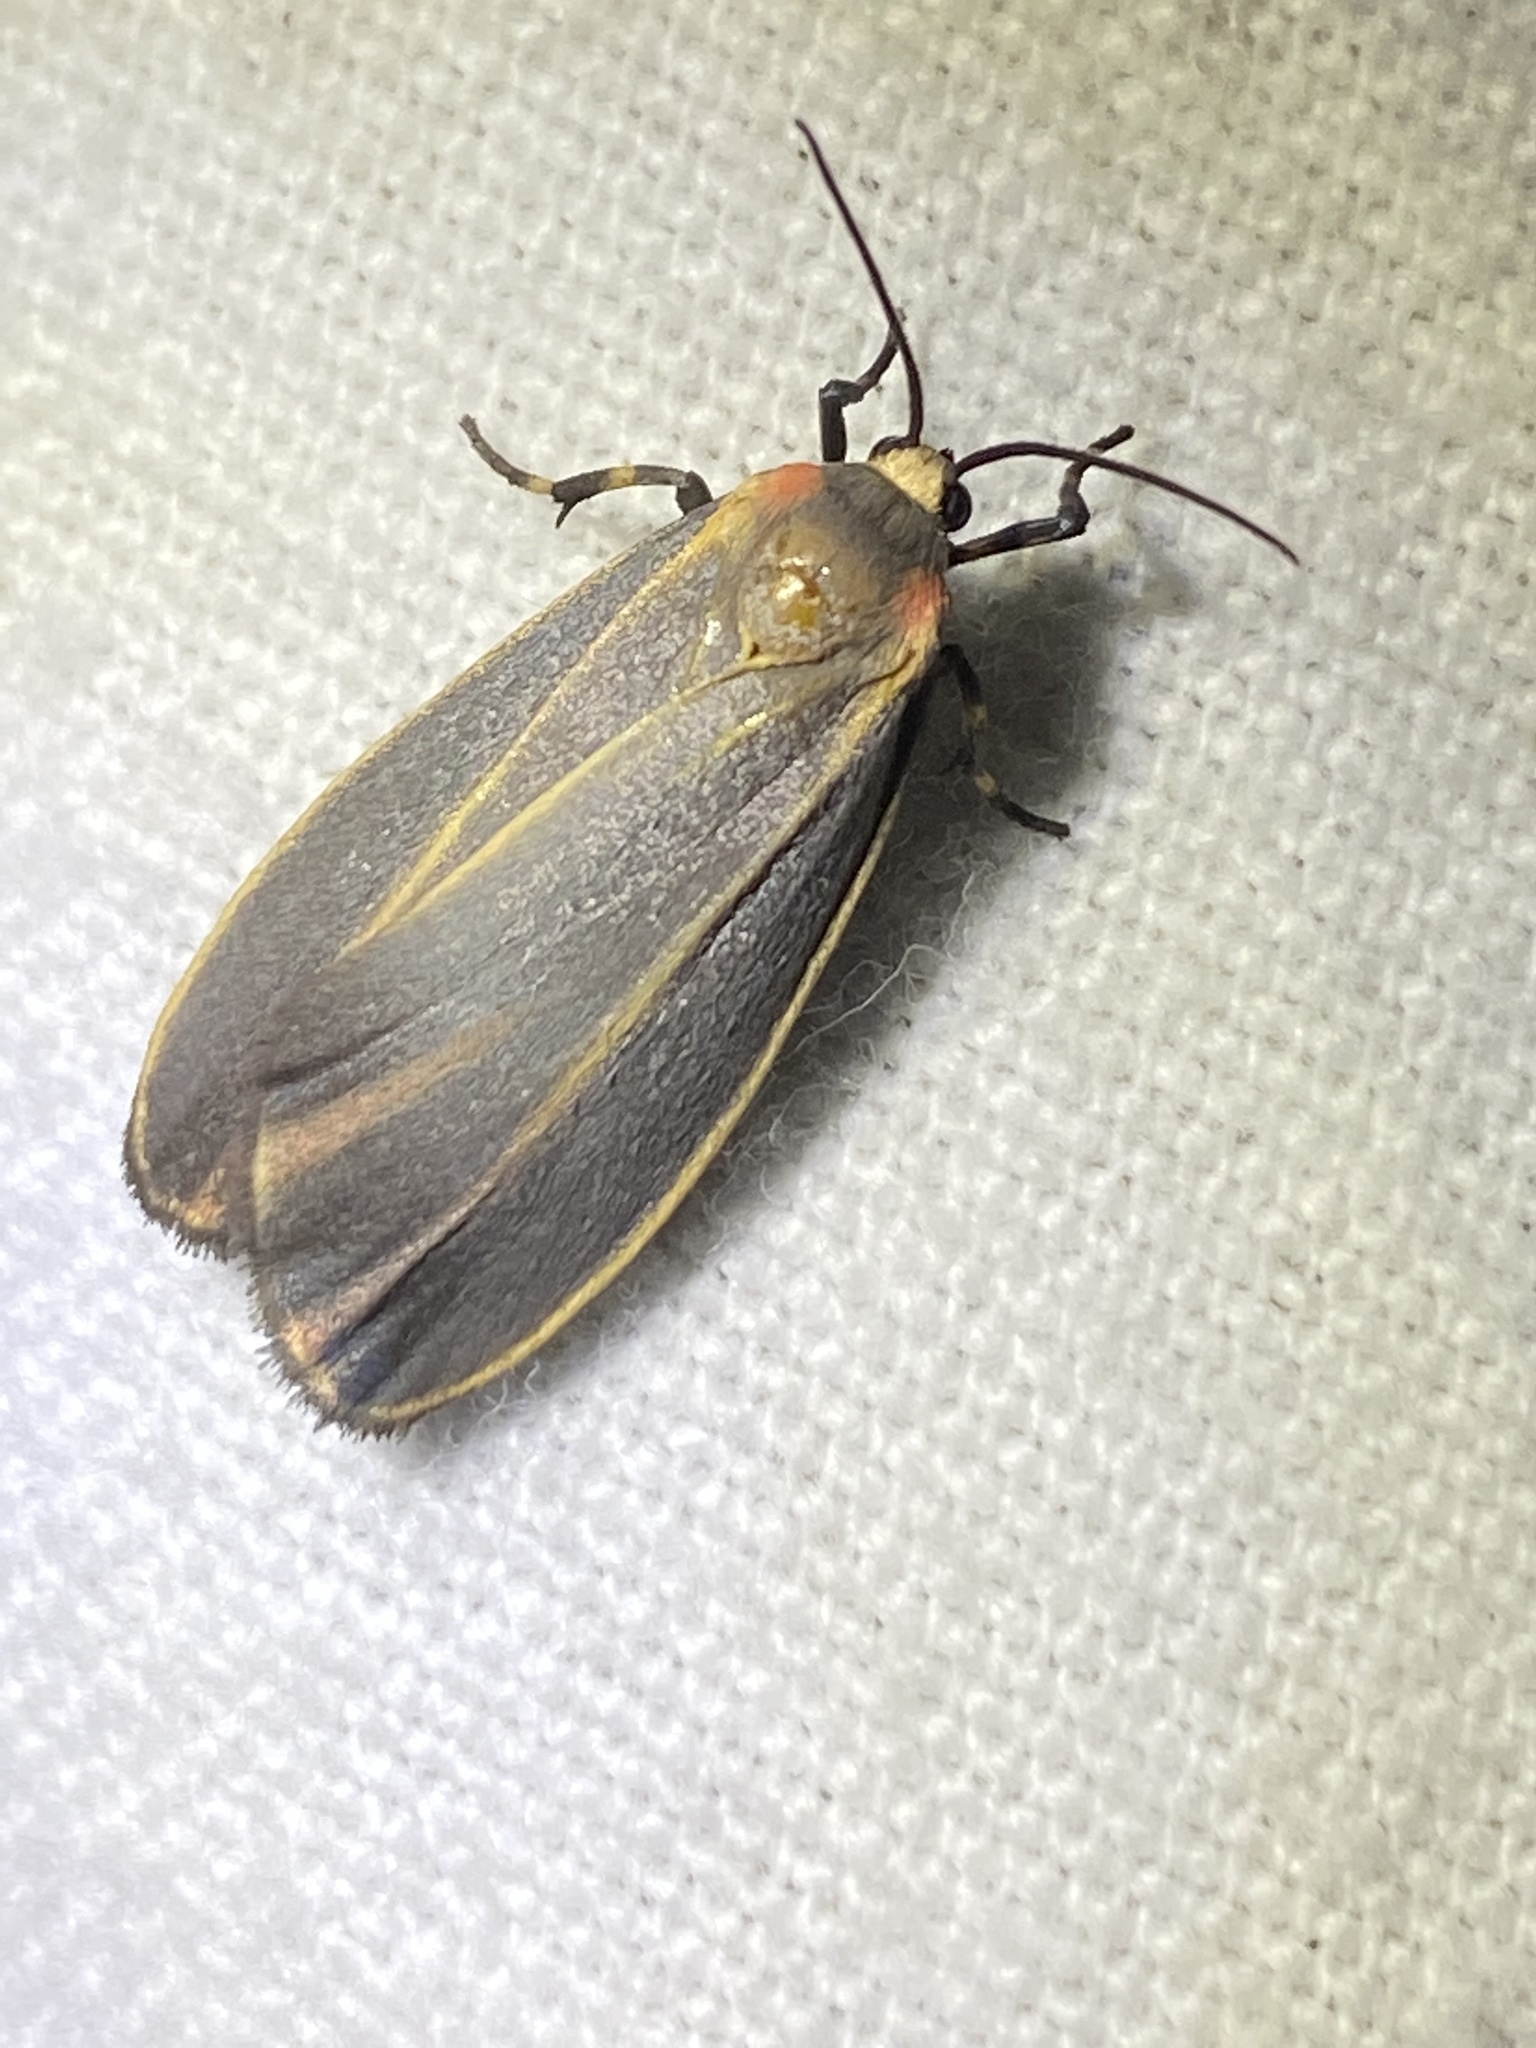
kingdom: Animalia
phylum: Arthropoda
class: Insecta
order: Lepidoptera
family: Erebidae
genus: Hypoprepia
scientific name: Hypoprepia fucosa
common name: Painted lichen moth
